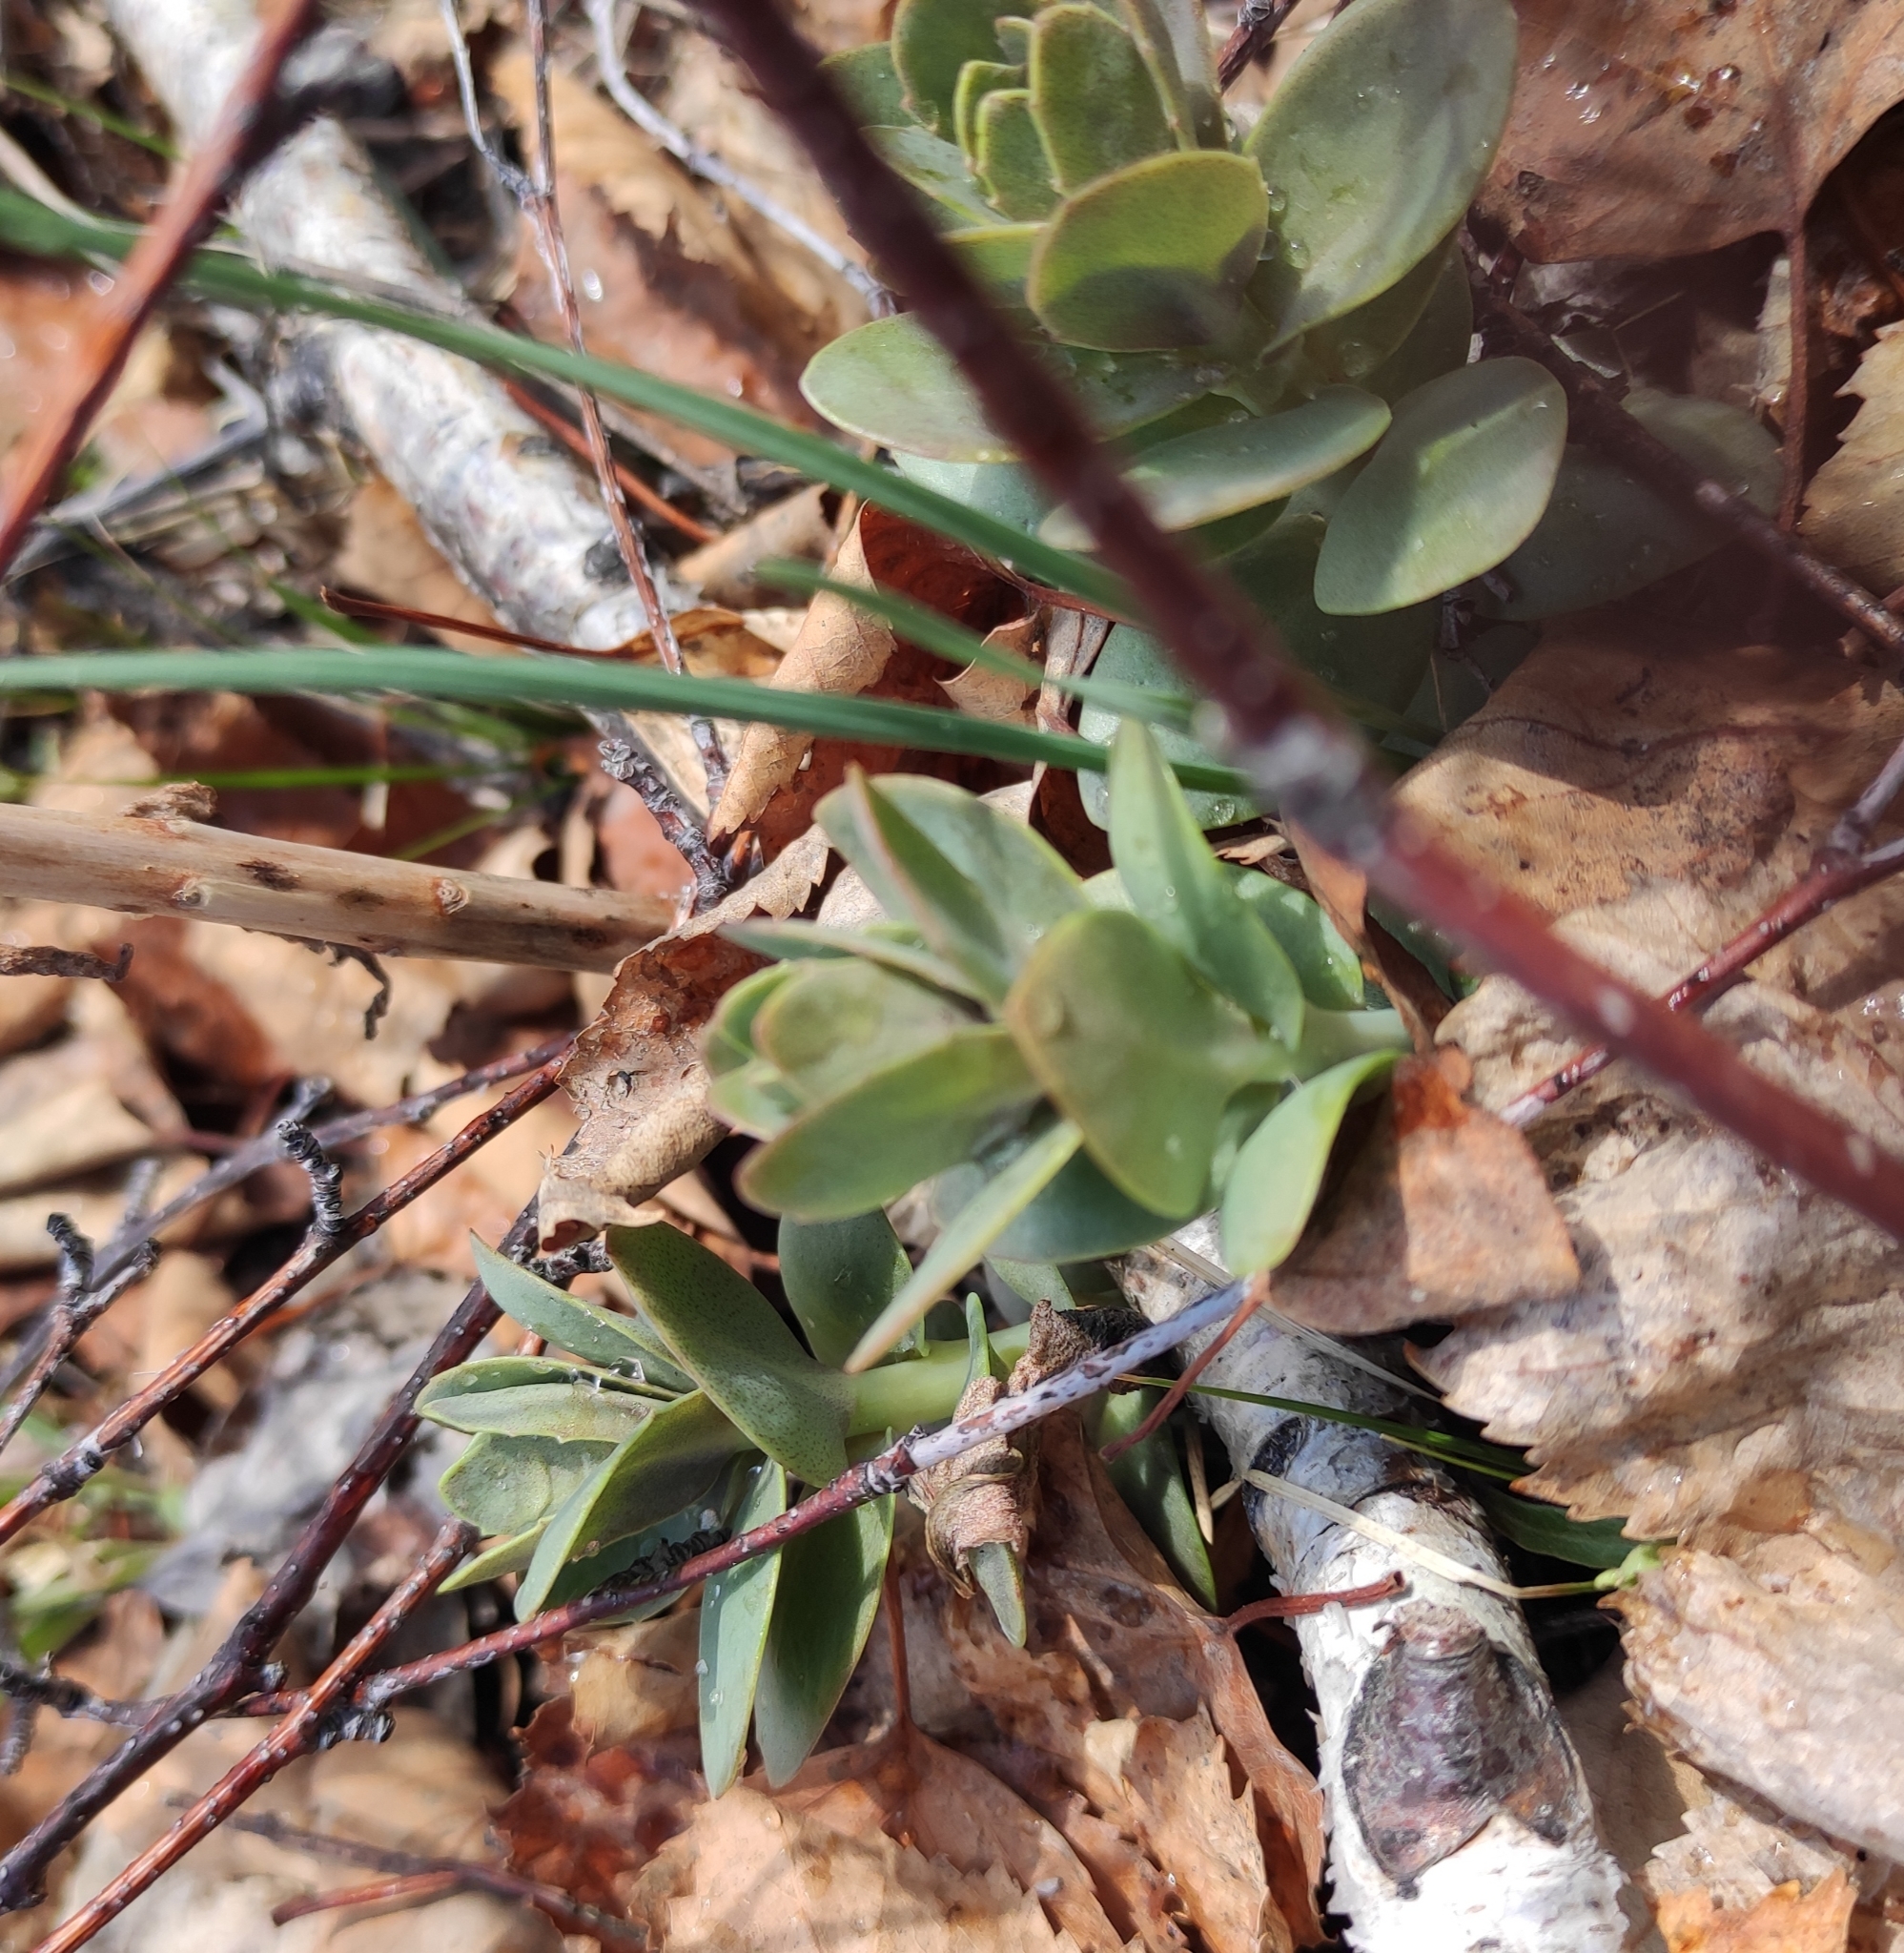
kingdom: Plantae
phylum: Tracheophyta
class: Magnoliopsida
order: Saxifragales
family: Crassulaceae
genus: Hylotelephium
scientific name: Hylotelephium telephium
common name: Live-forever
